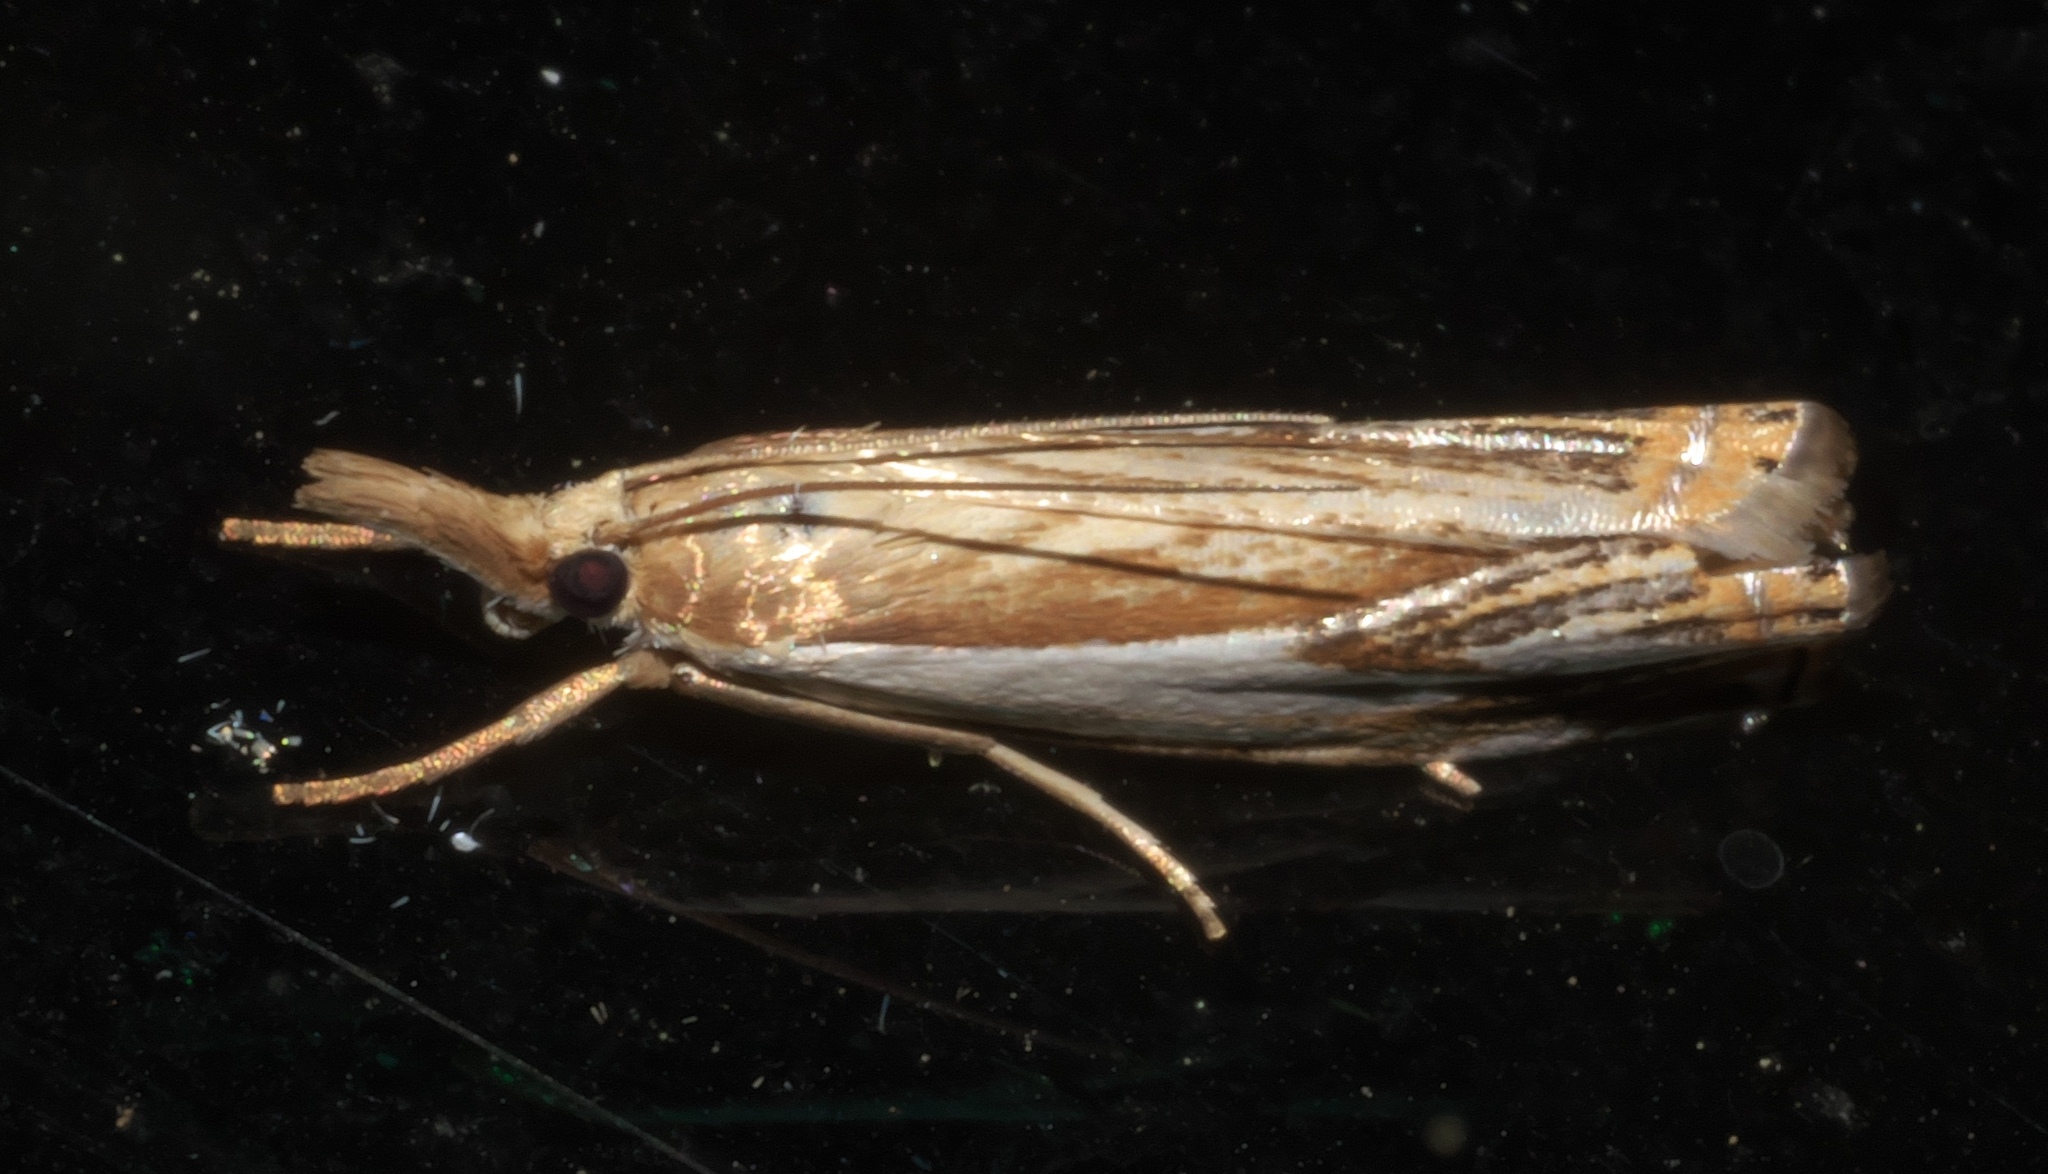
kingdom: Animalia
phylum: Arthropoda
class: Insecta
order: Lepidoptera
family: Crambidae
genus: Crambus
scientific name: Crambus agitatellus
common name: Double-banded grass-veneer
